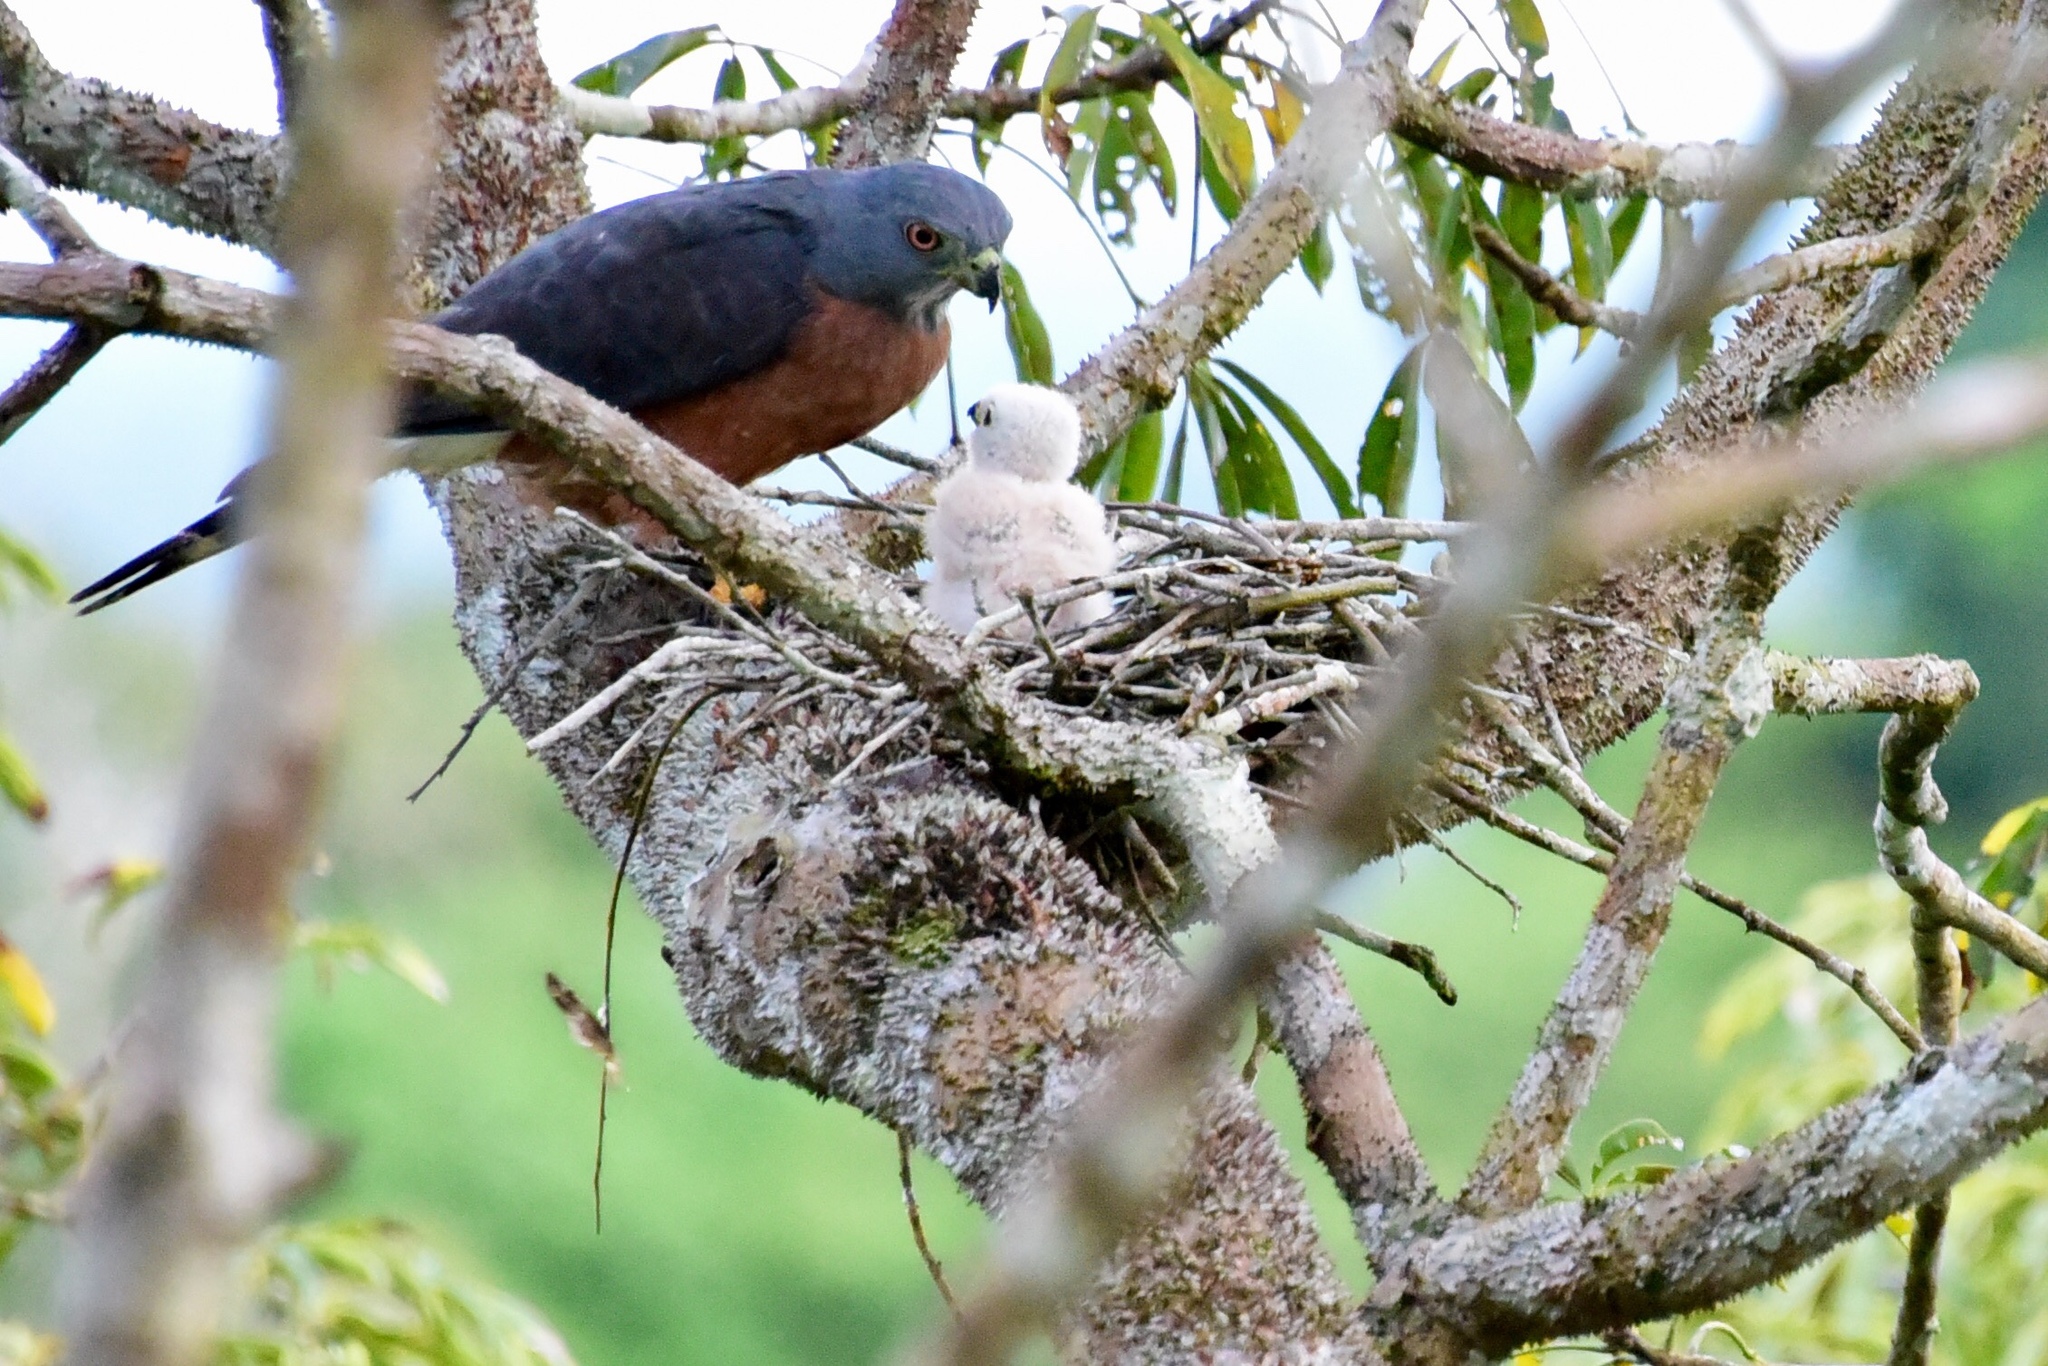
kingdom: Animalia
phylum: Chordata
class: Aves
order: Accipitriformes
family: Accipitridae
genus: Harpagus
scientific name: Harpagus bidentatus
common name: Double-toothed kite
